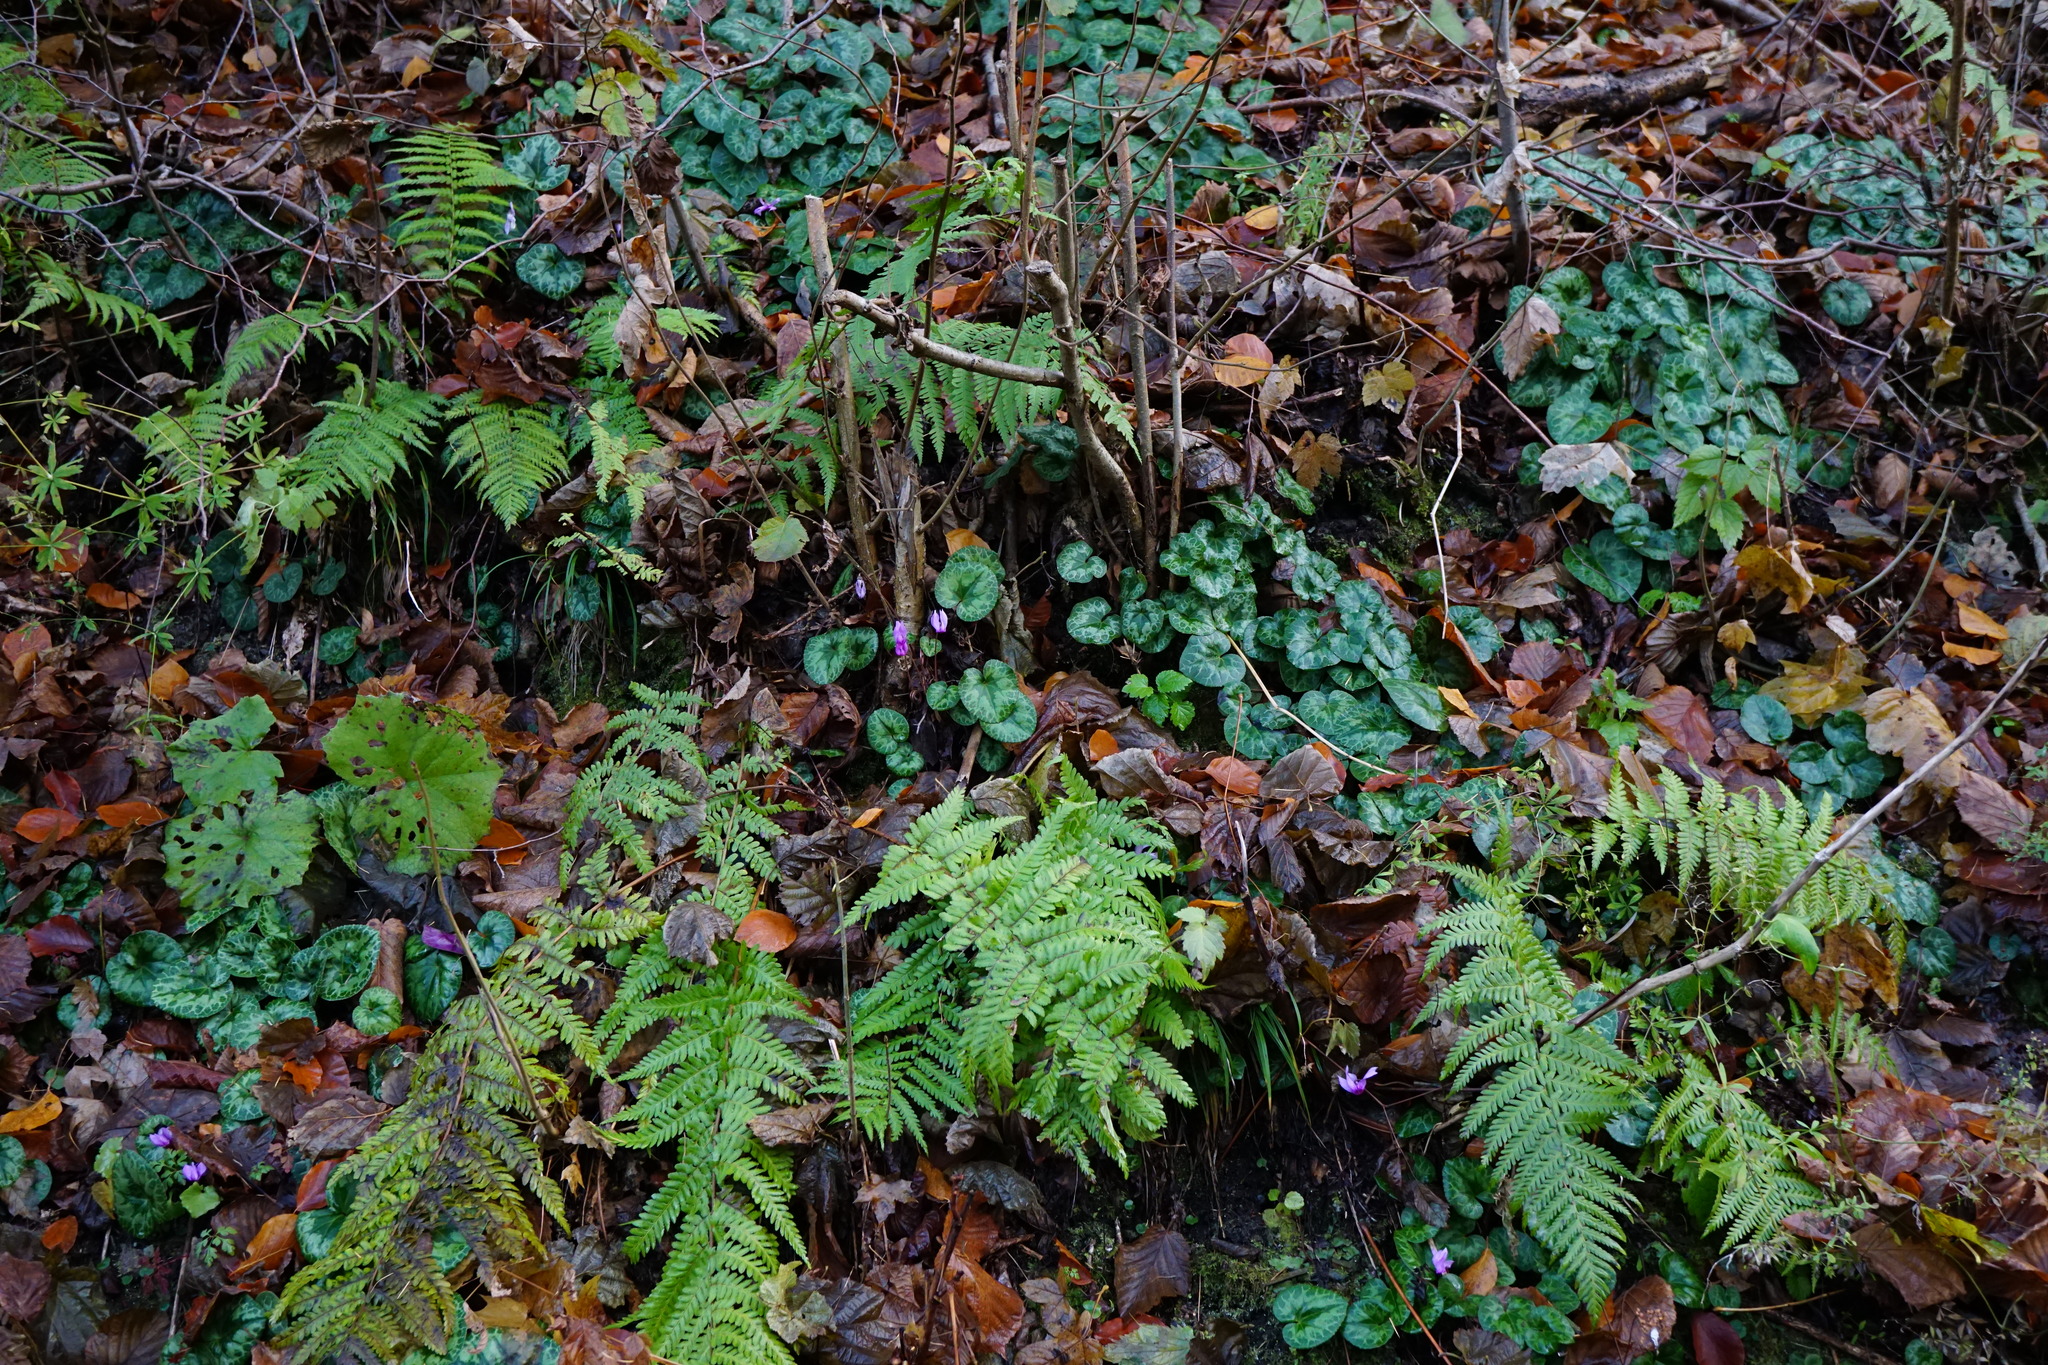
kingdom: Plantae
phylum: Tracheophyta
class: Magnoliopsida
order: Ericales
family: Primulaceae
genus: Cyclamen
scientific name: Cyclamen purpurascens
